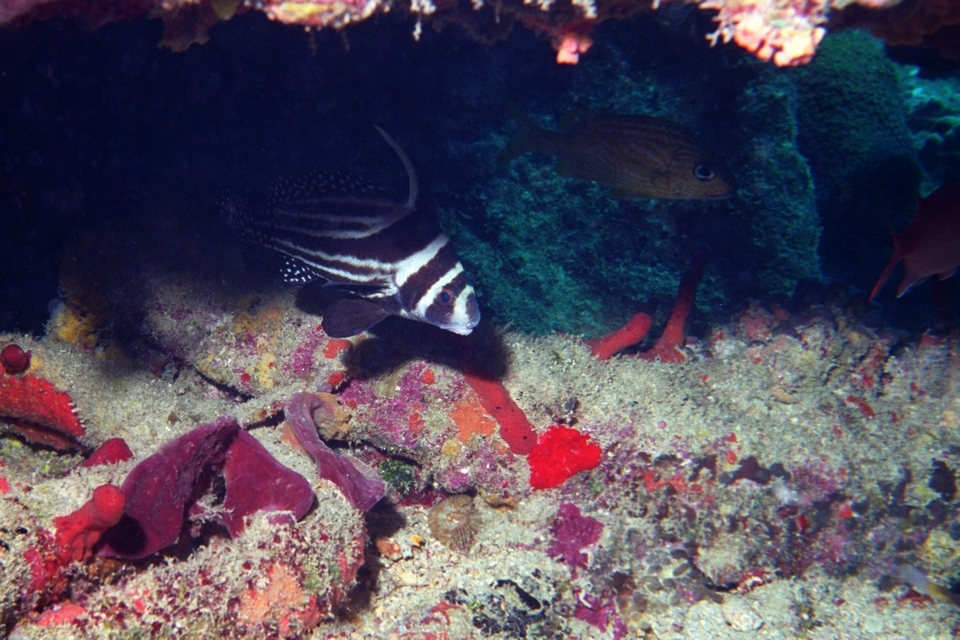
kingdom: Animalia
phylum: Chordata
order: Perciformes
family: Sciaenidae
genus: Equetus
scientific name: Equetus punctatus
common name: Spotted drum
